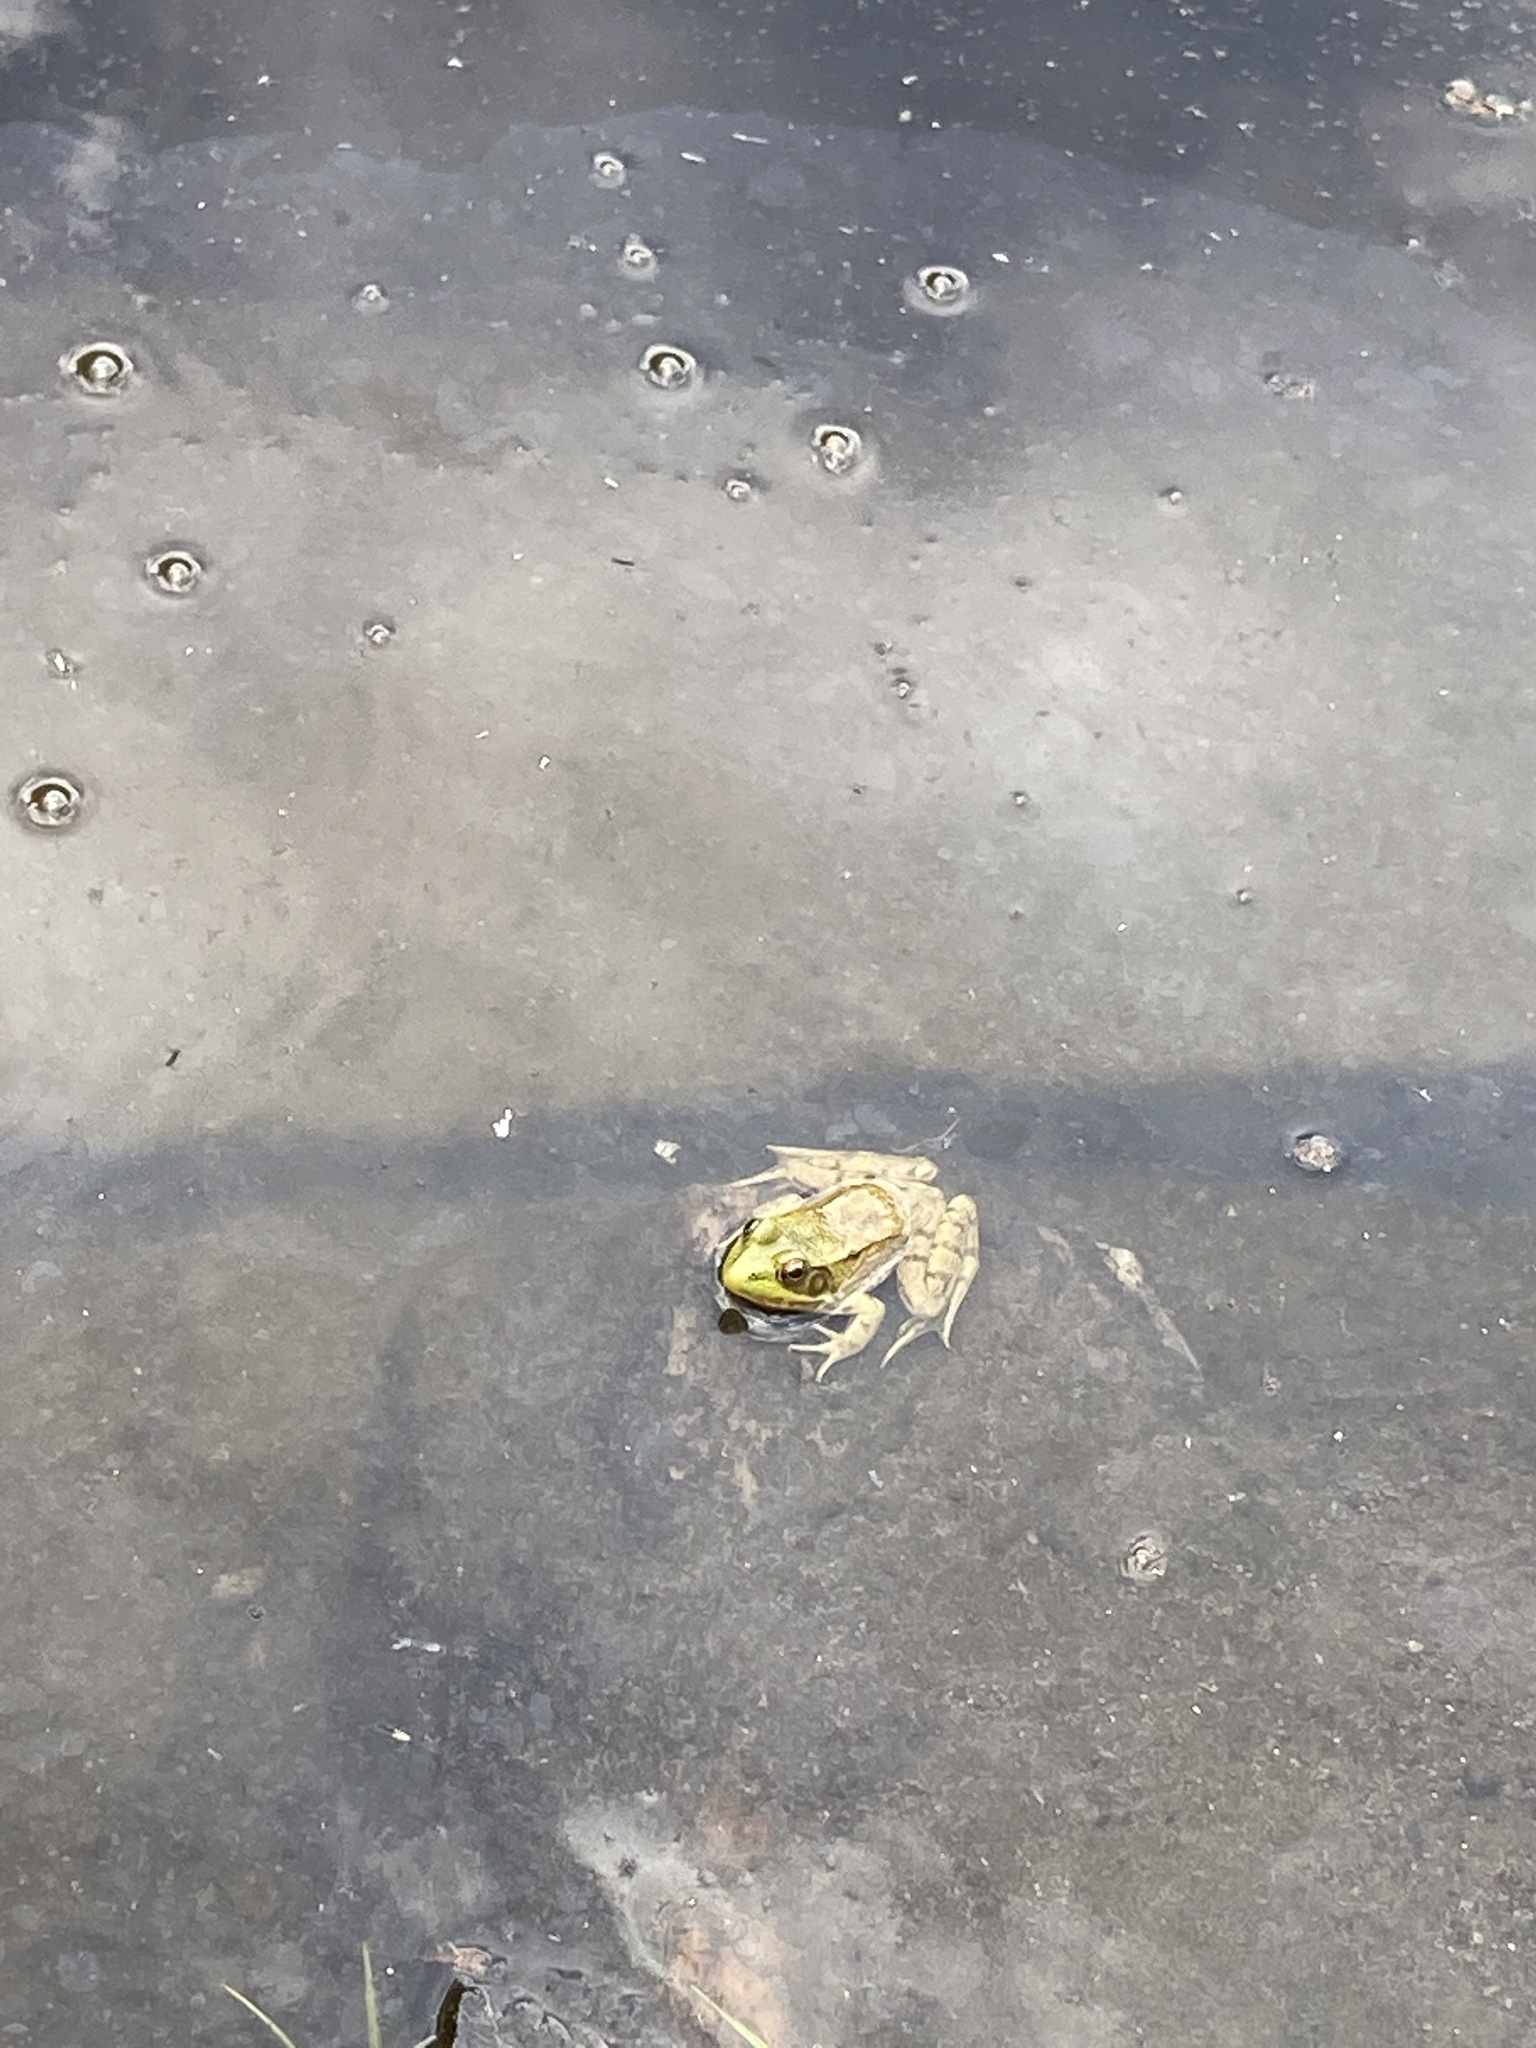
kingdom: Animalia
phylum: Chordata
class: Amphibia
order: Anura
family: Ranidae
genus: Lithobates
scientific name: Lithobates clamitans
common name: Green frog
